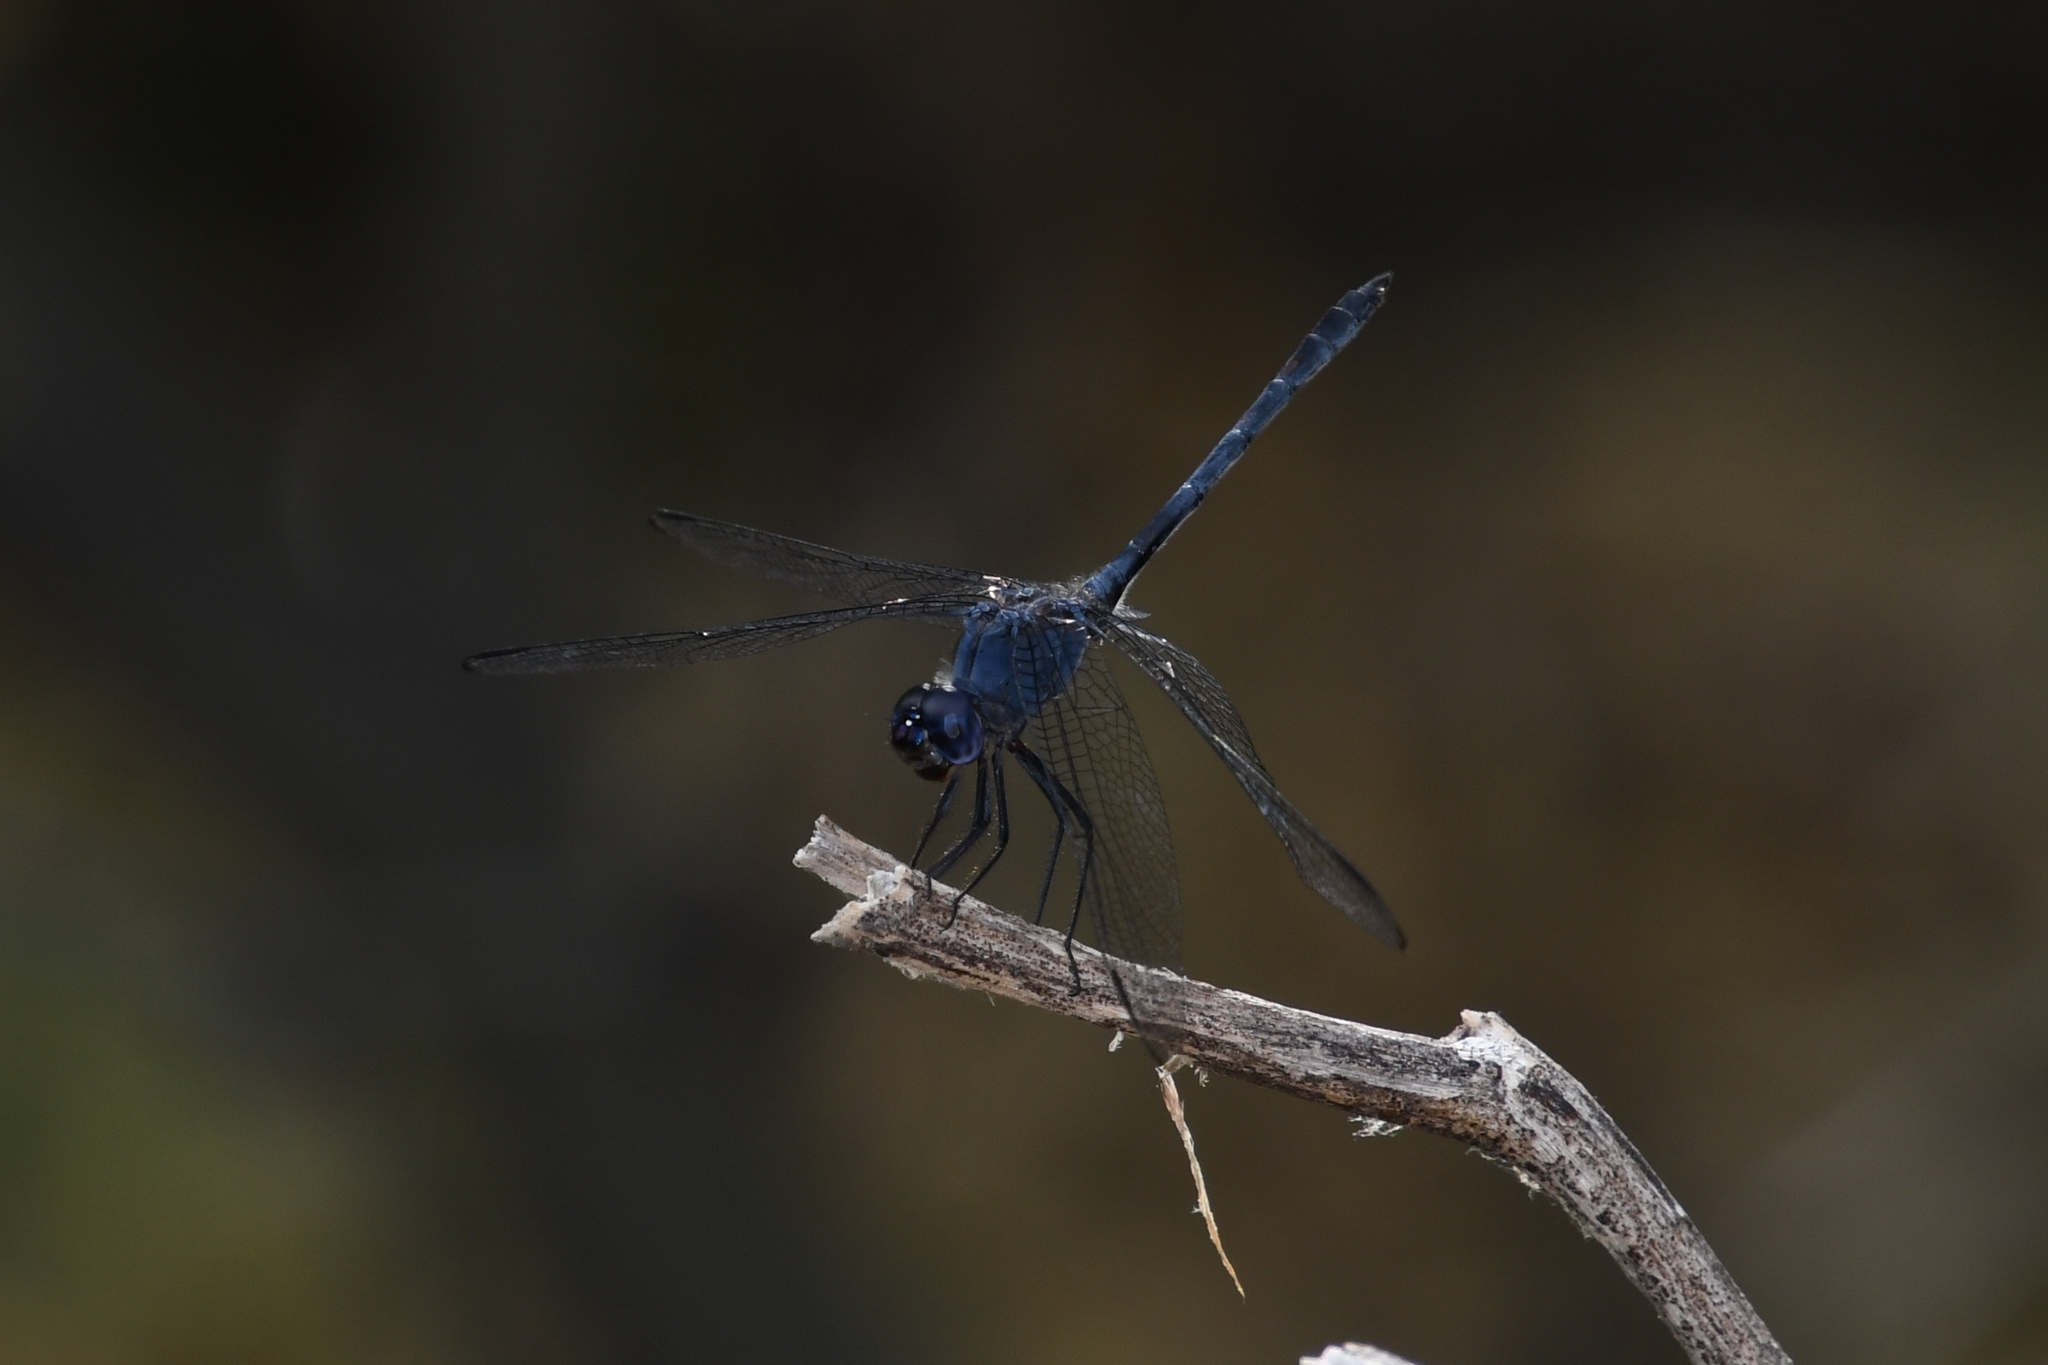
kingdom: Animalia
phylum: Arthropoda
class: Insecta
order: Odonata
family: Libellulidae
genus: Dythemis
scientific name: Dythemis nigrescens
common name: Black setwing
